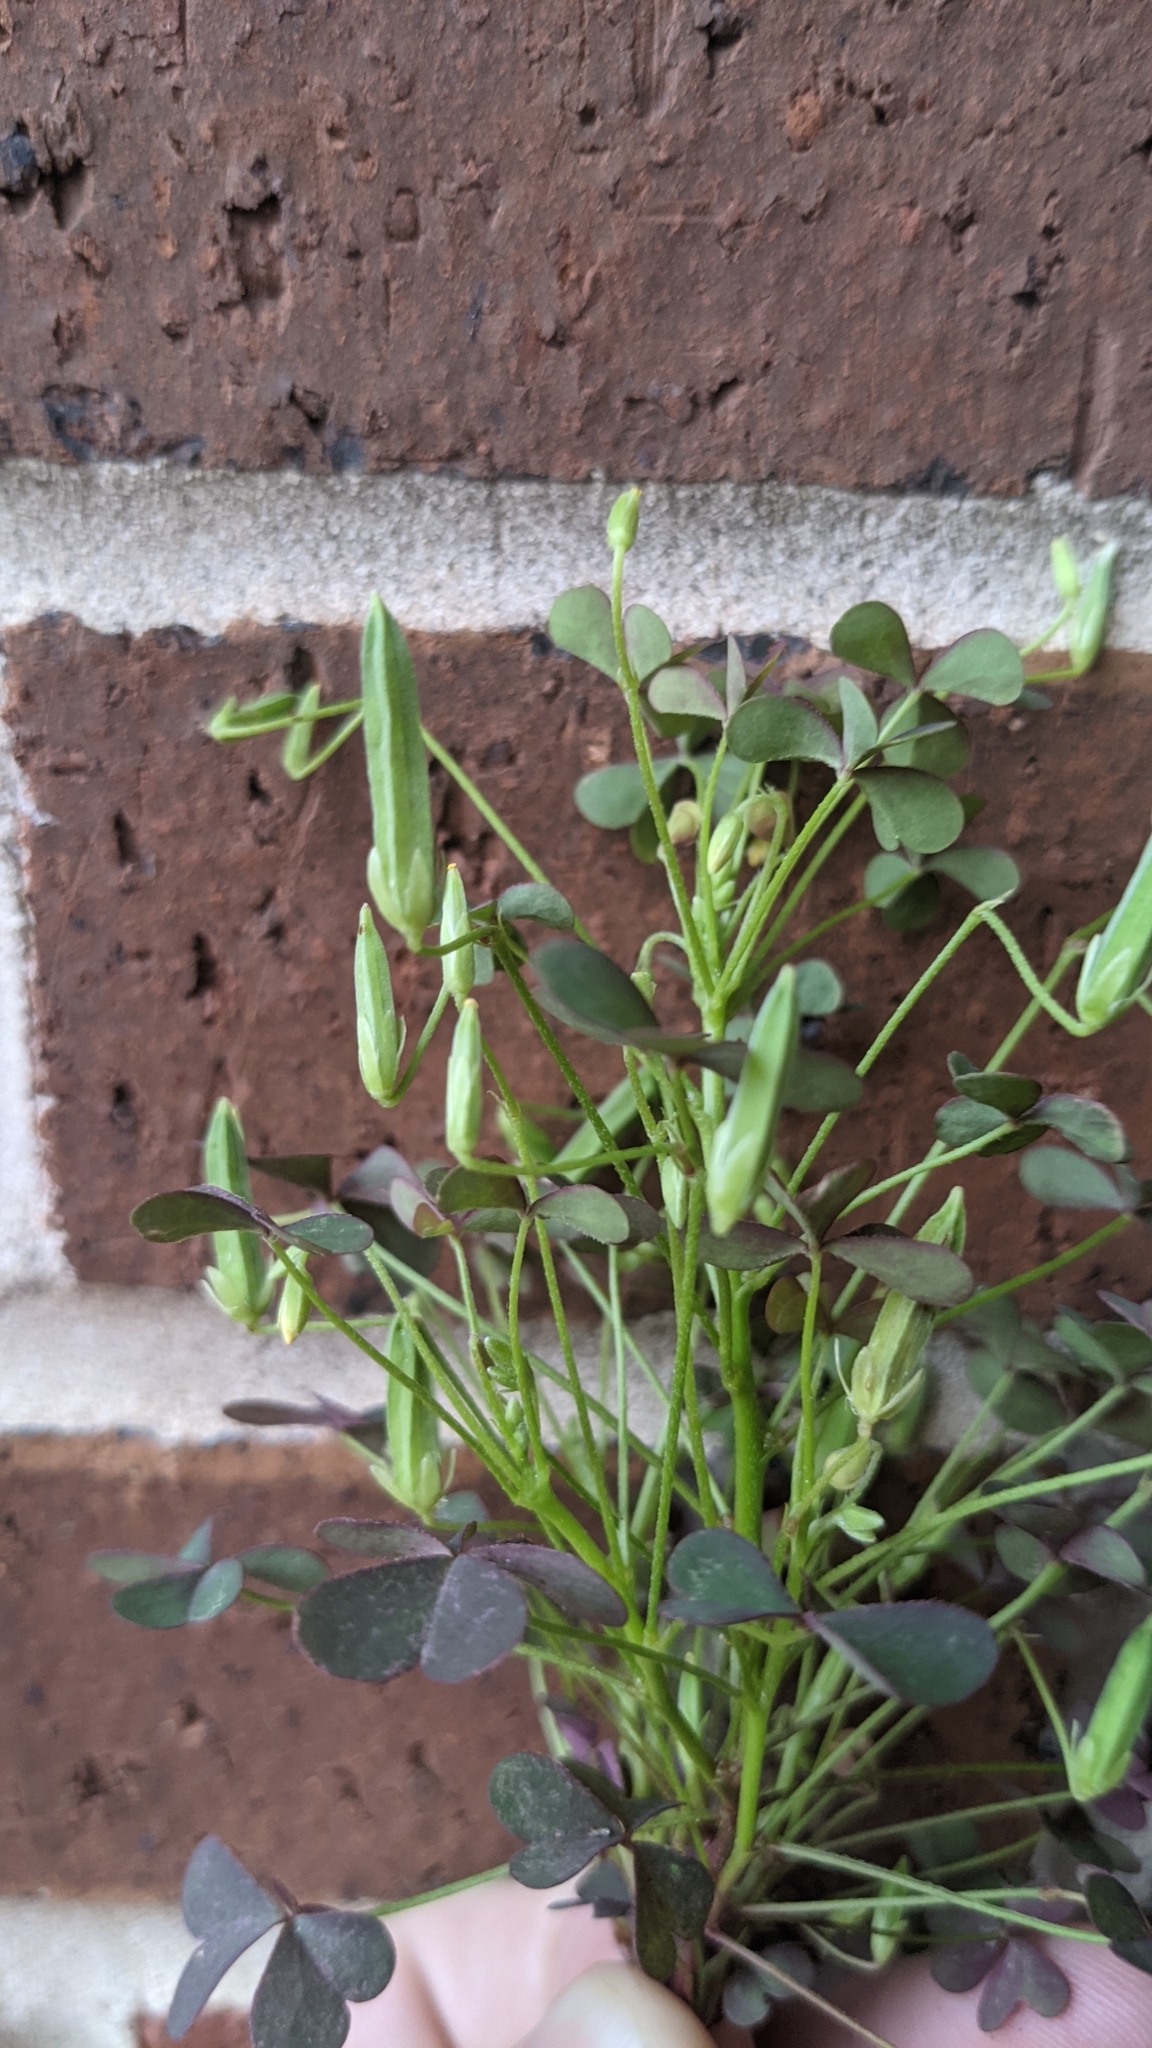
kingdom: Plantae
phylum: Tracheophyta
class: Magnoliopsida
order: Oxalidales
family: Oxalidaceae
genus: Oxalis
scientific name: Oxalis dillenii
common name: Sussex yellow-sorrel
